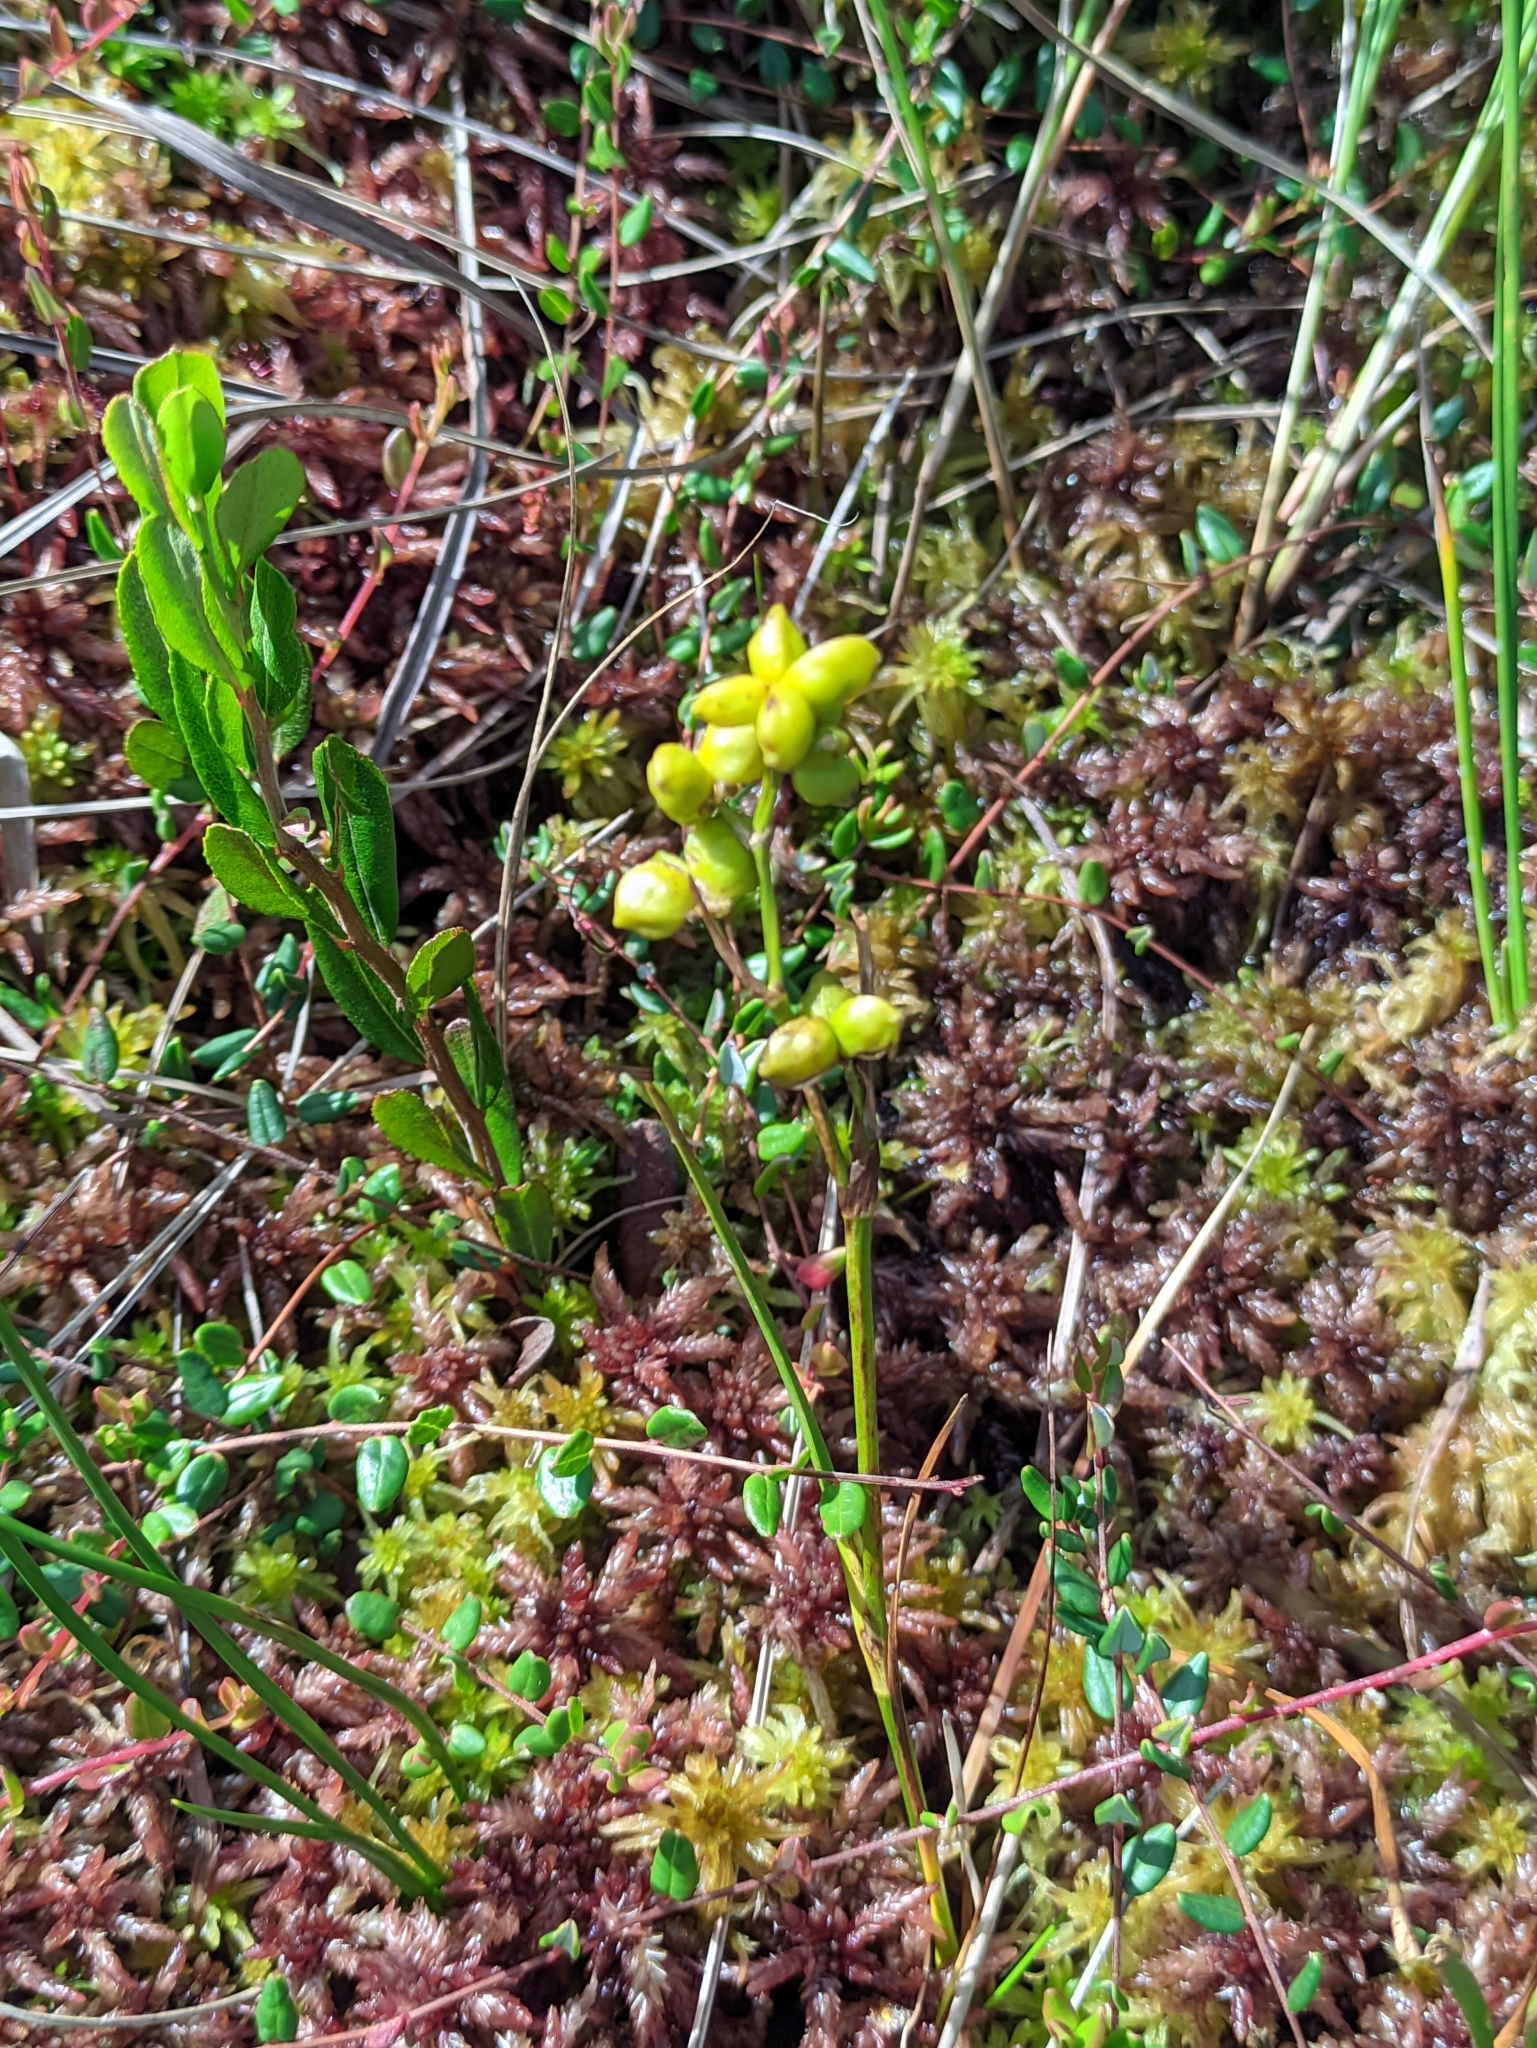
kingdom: Plantae
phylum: Tracheophyta
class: Liliopsida
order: Alismatales
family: Scheuchzeriaceae
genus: Scheuchzeria
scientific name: Scheuchzeria palustris
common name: Rannoch-rush
